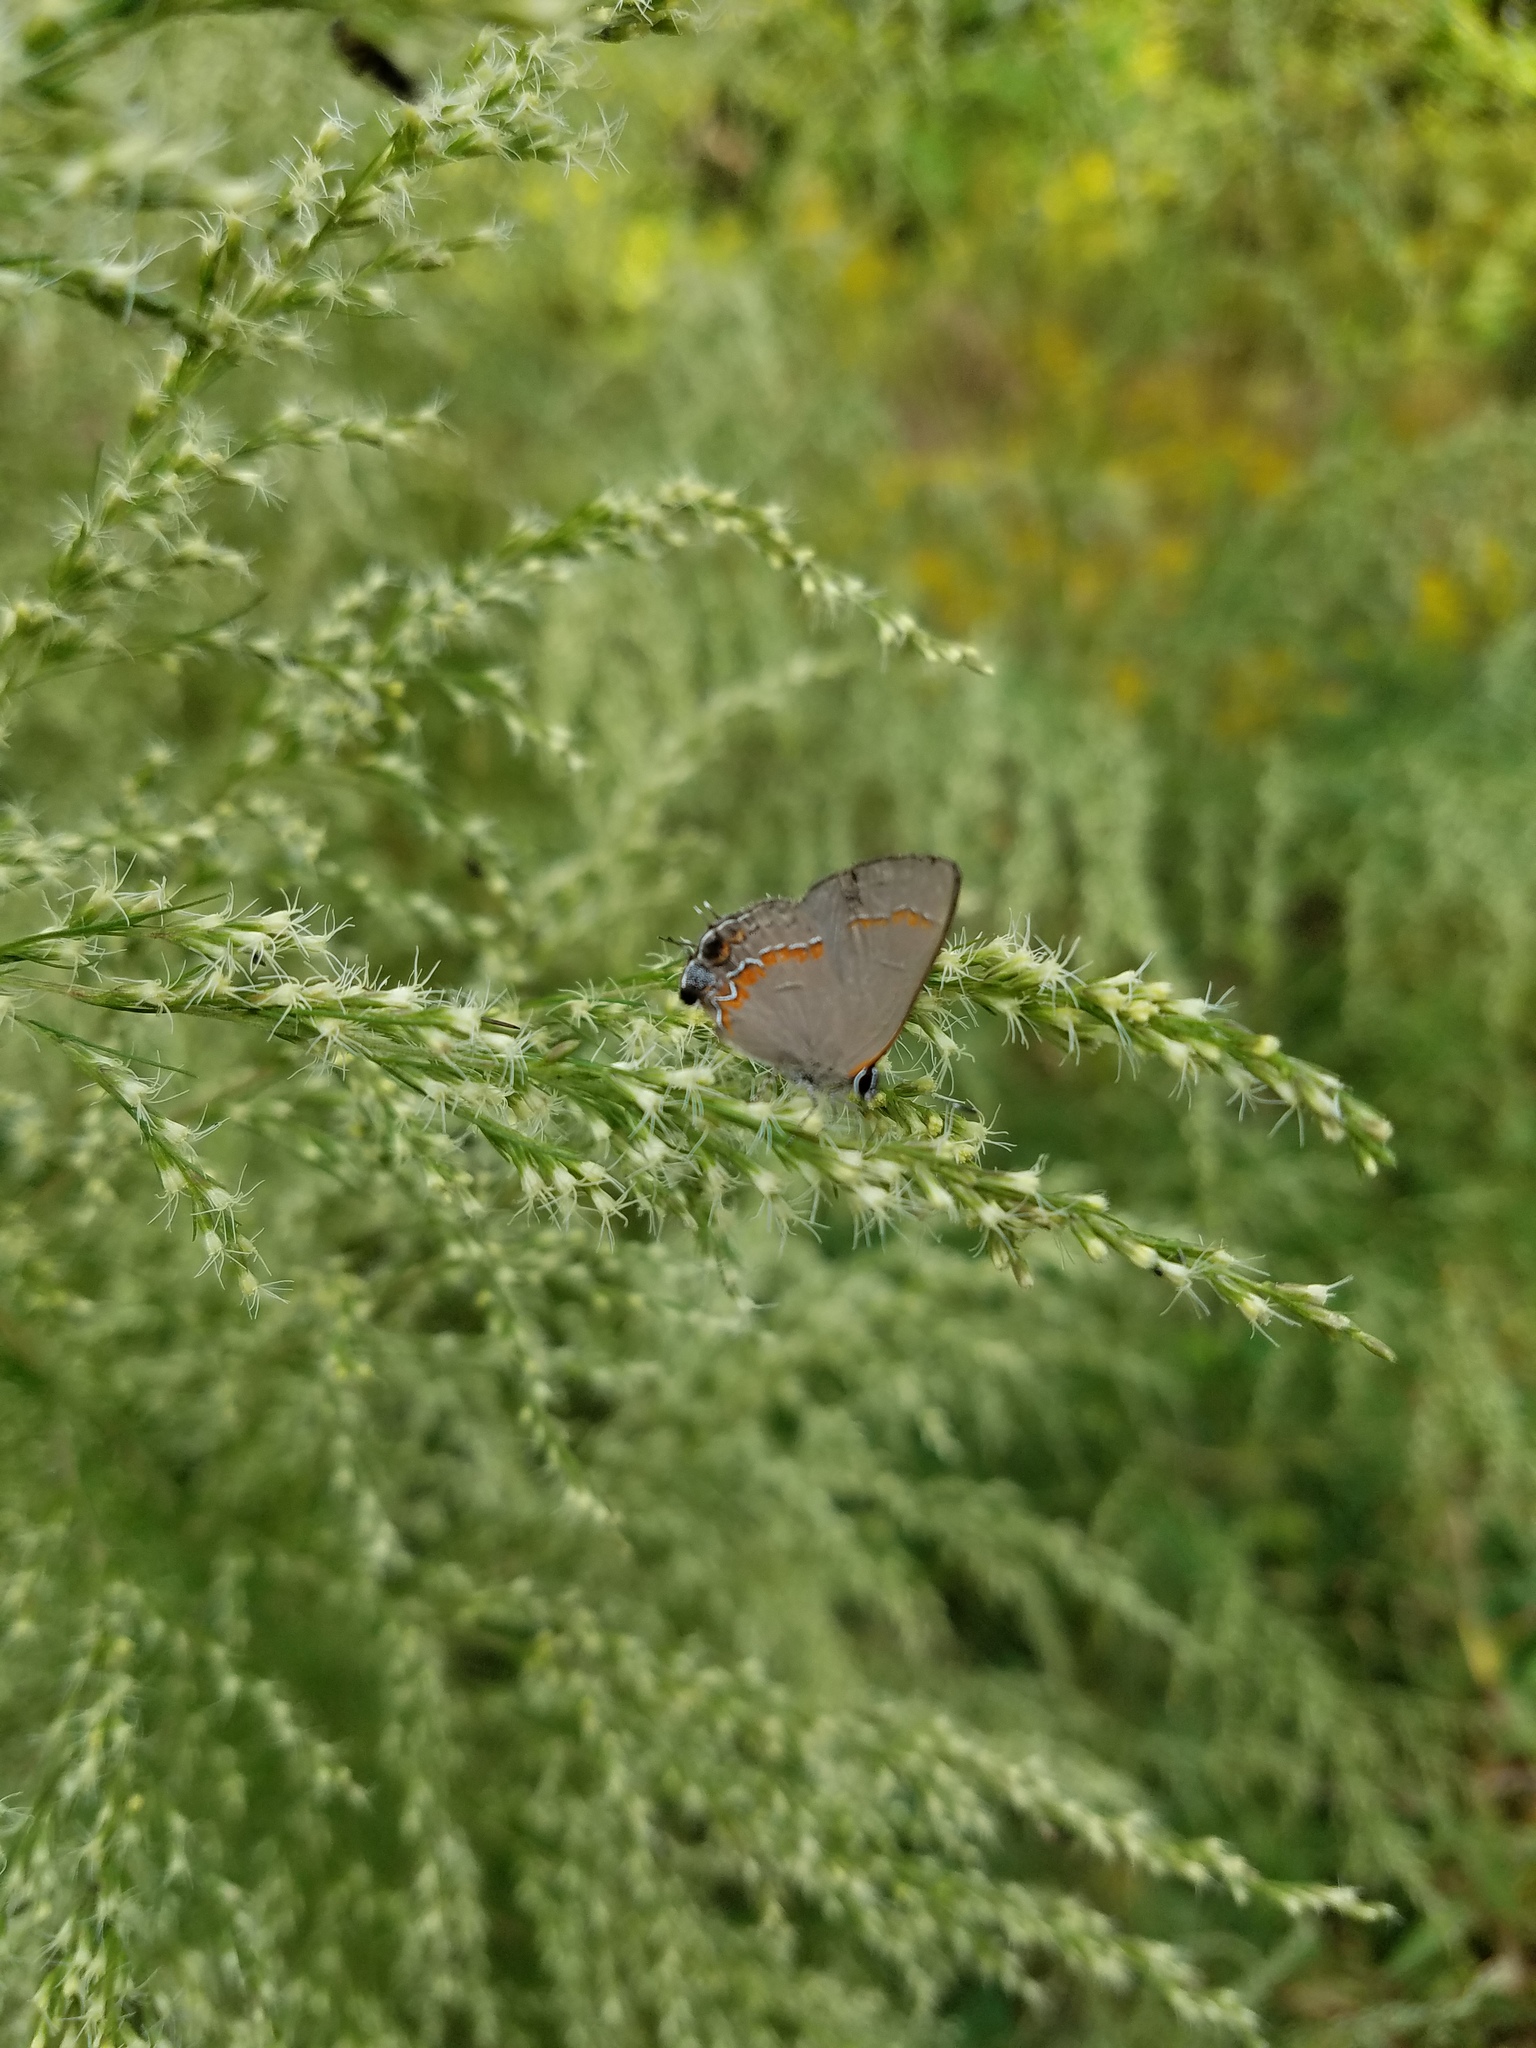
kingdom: Animalia
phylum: Arthropoda
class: Insecta
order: Lepidoptera
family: Lycaenidae
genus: Calycopis
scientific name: Calycopis cecrops
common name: Red-banded hairstreak
